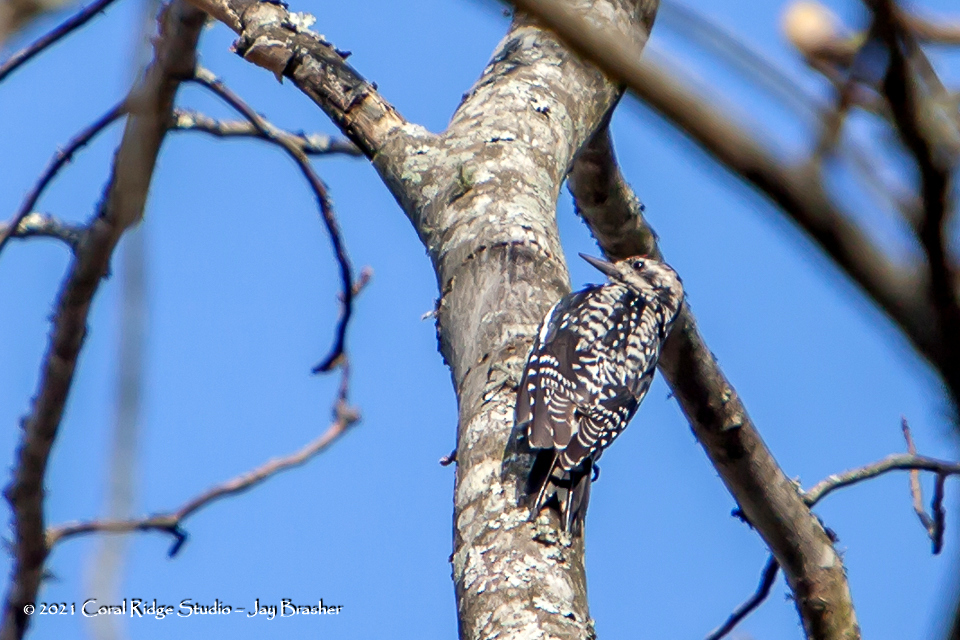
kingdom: Animalia
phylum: Chordata
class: Aves
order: Piciformes
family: Picidae
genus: Sphyrapicus
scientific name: Sphyrapicus varius
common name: Yellow-bellied sapsucker
